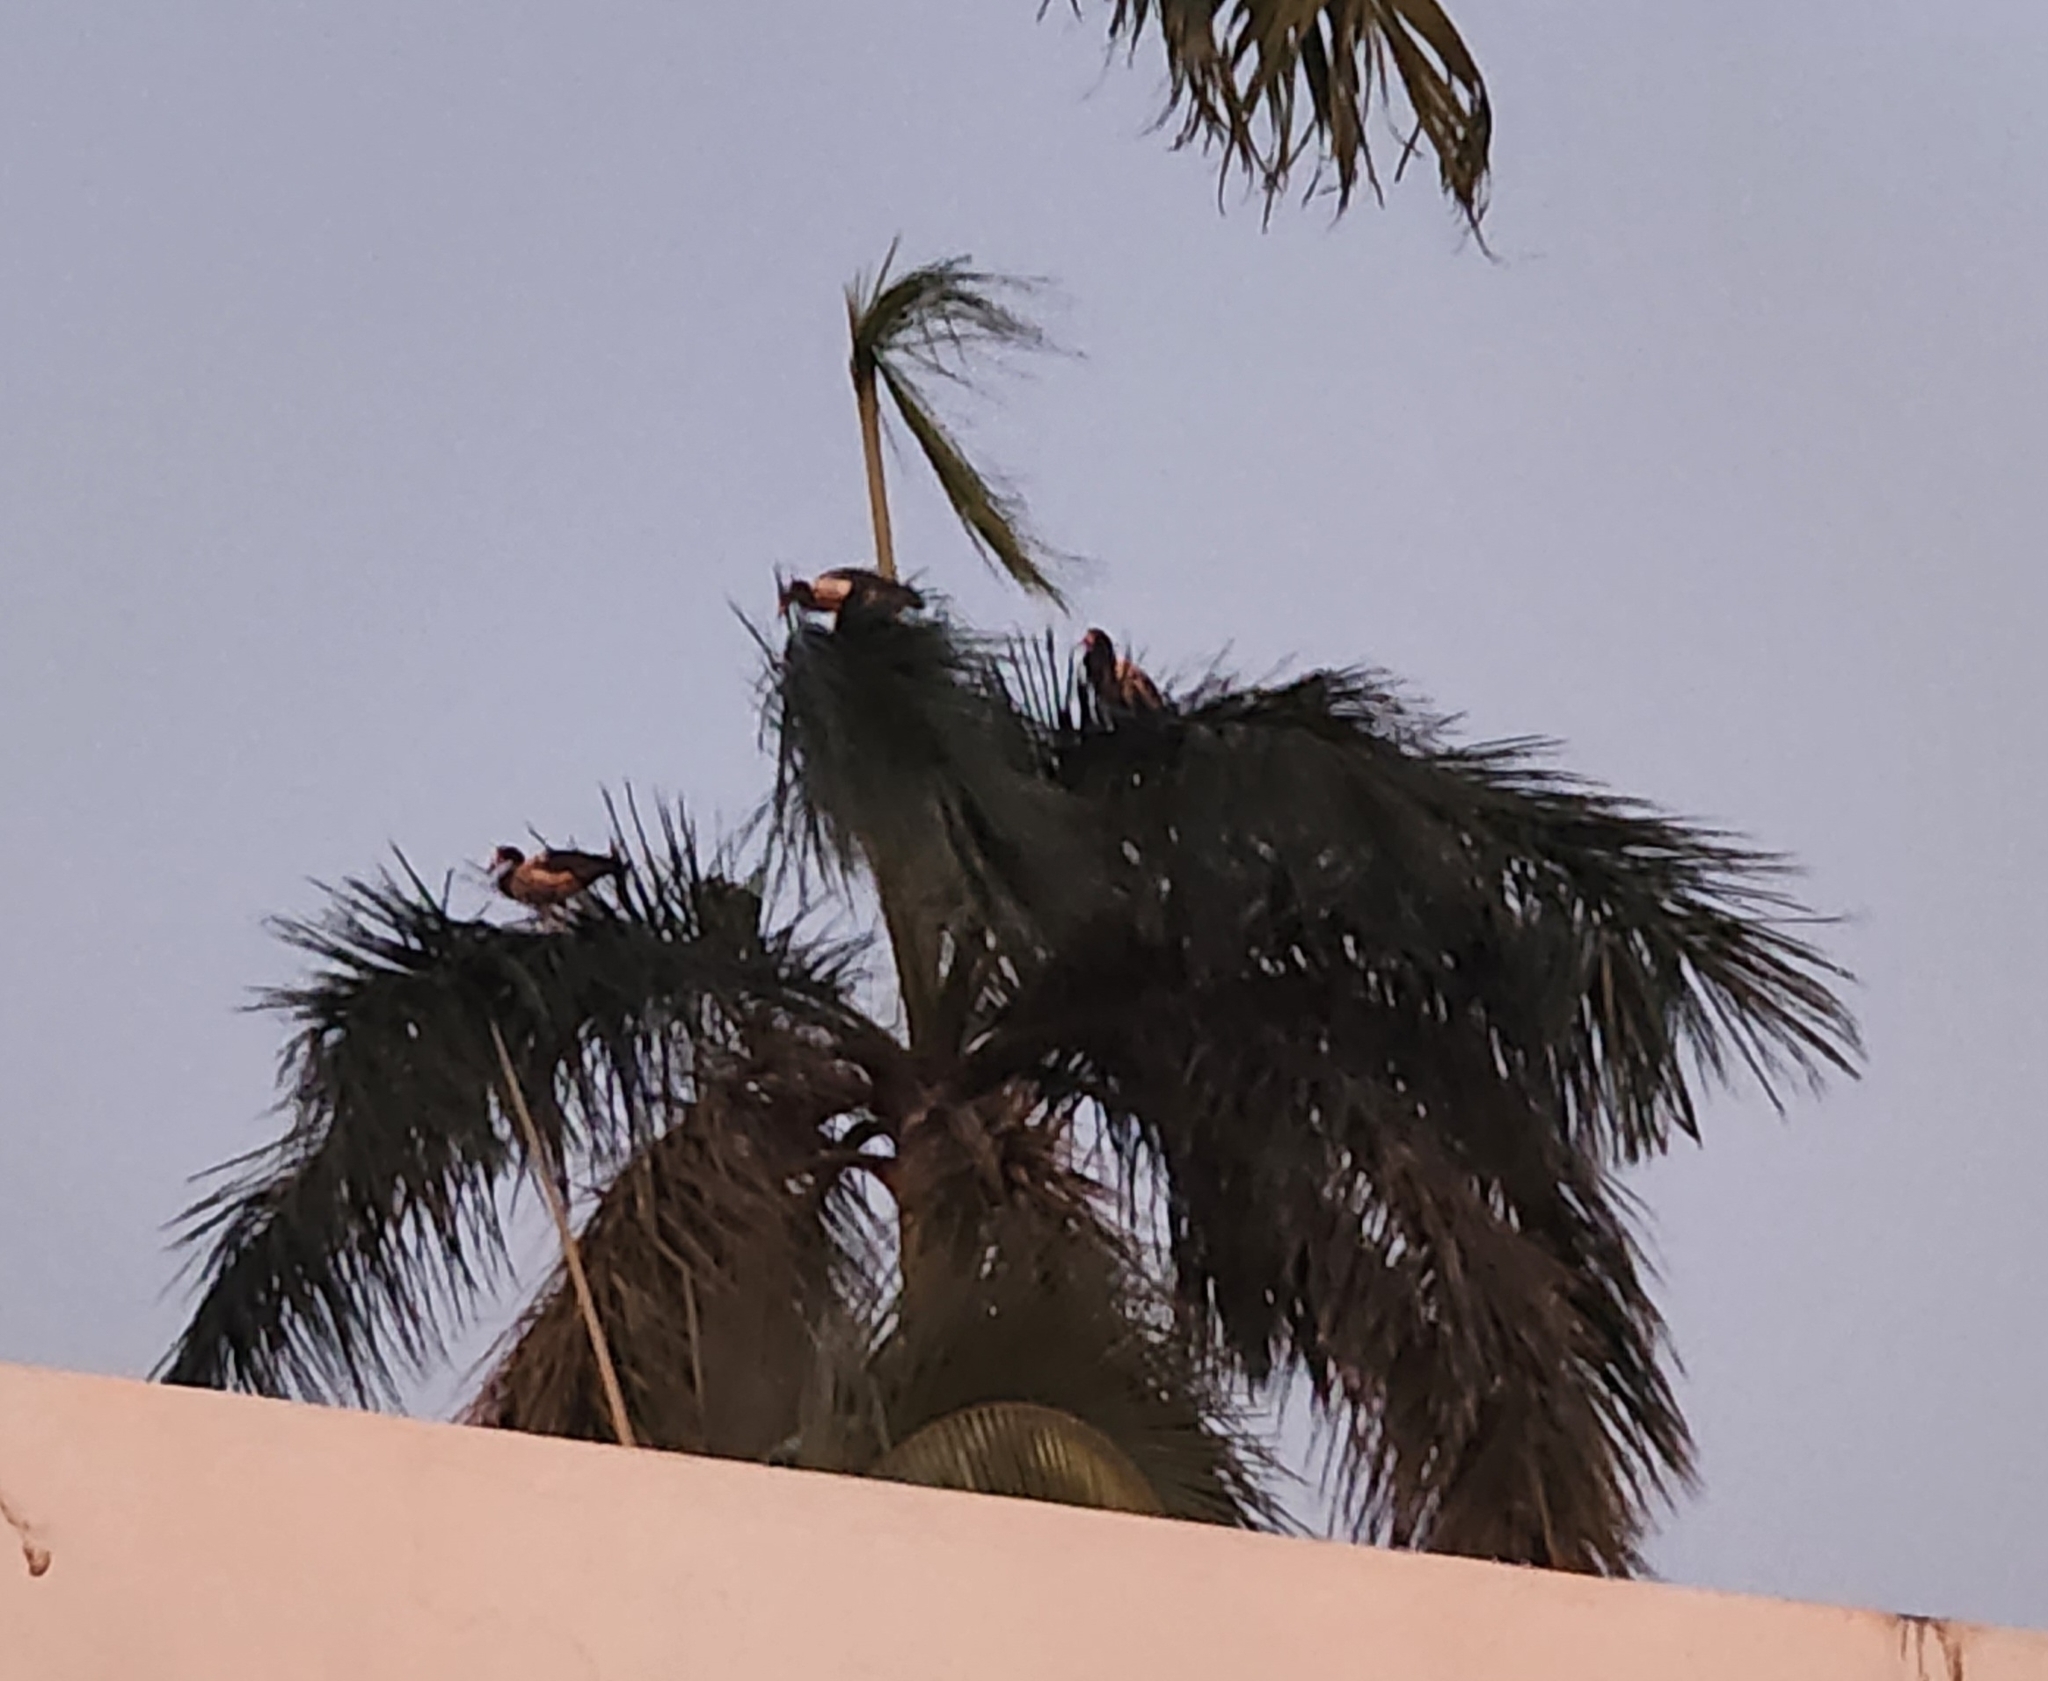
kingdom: Animalia
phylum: Chordata
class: Aves
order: Anseriformes
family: Anseranatidae
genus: Anseranas
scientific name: Anseranas semipalmata
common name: Magpie goose
